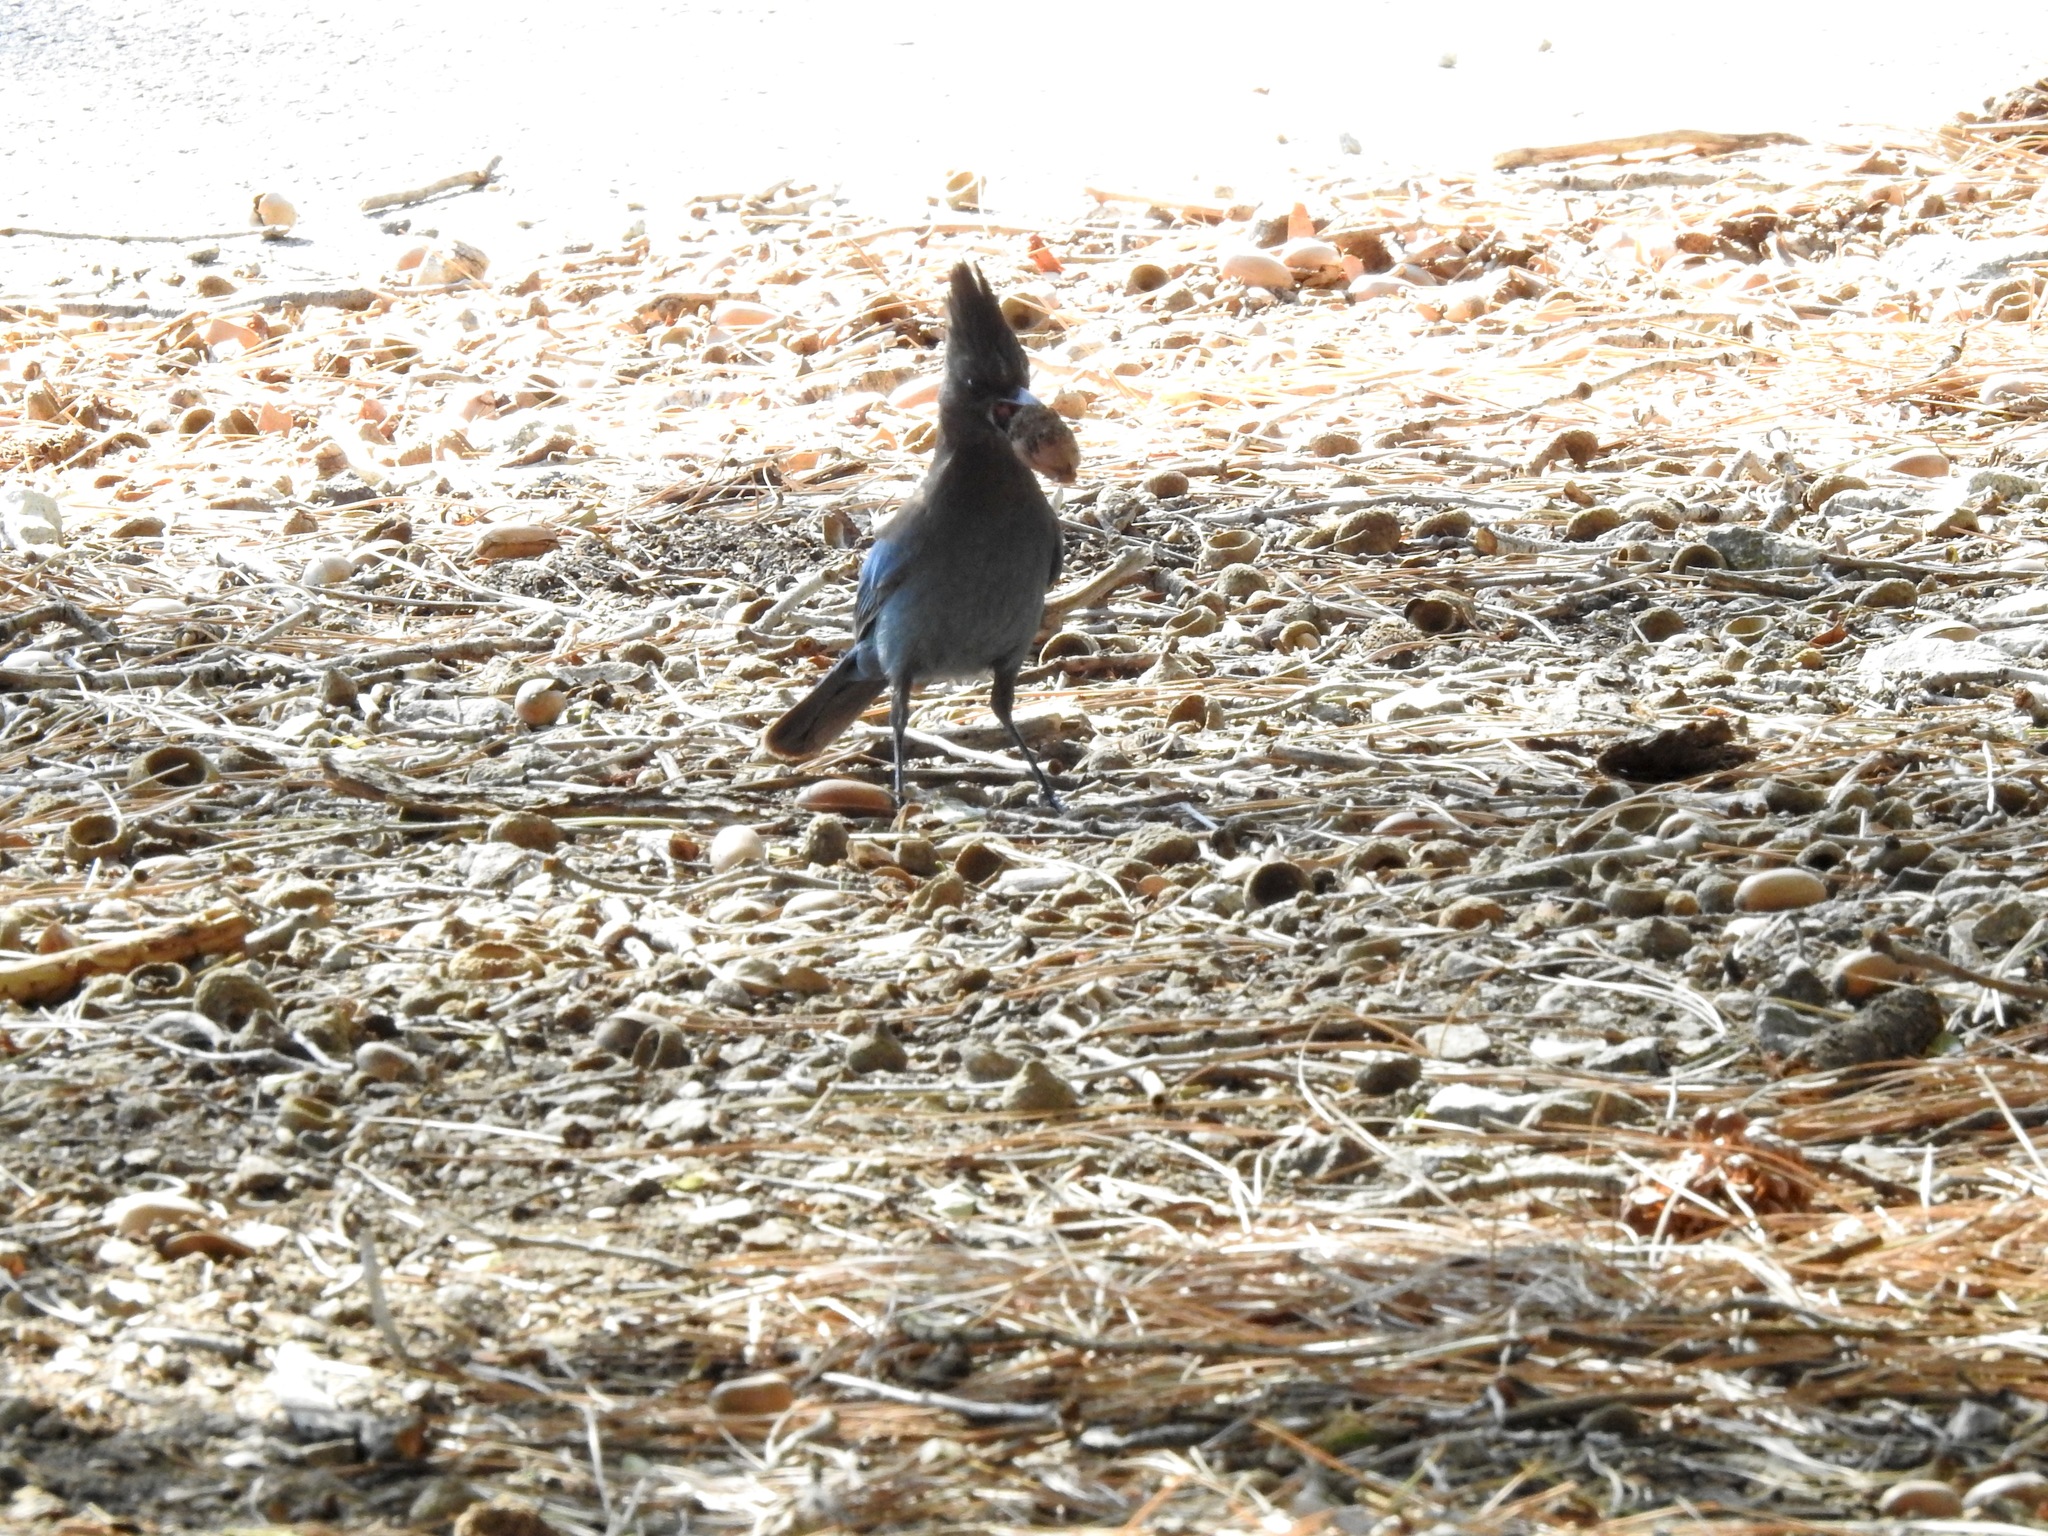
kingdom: Animalia
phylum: Chordata
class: Aves
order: Passeriformes
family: Corvidae
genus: Cyanocitta
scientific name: Cyanocitta stelleri
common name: Steller's jay
